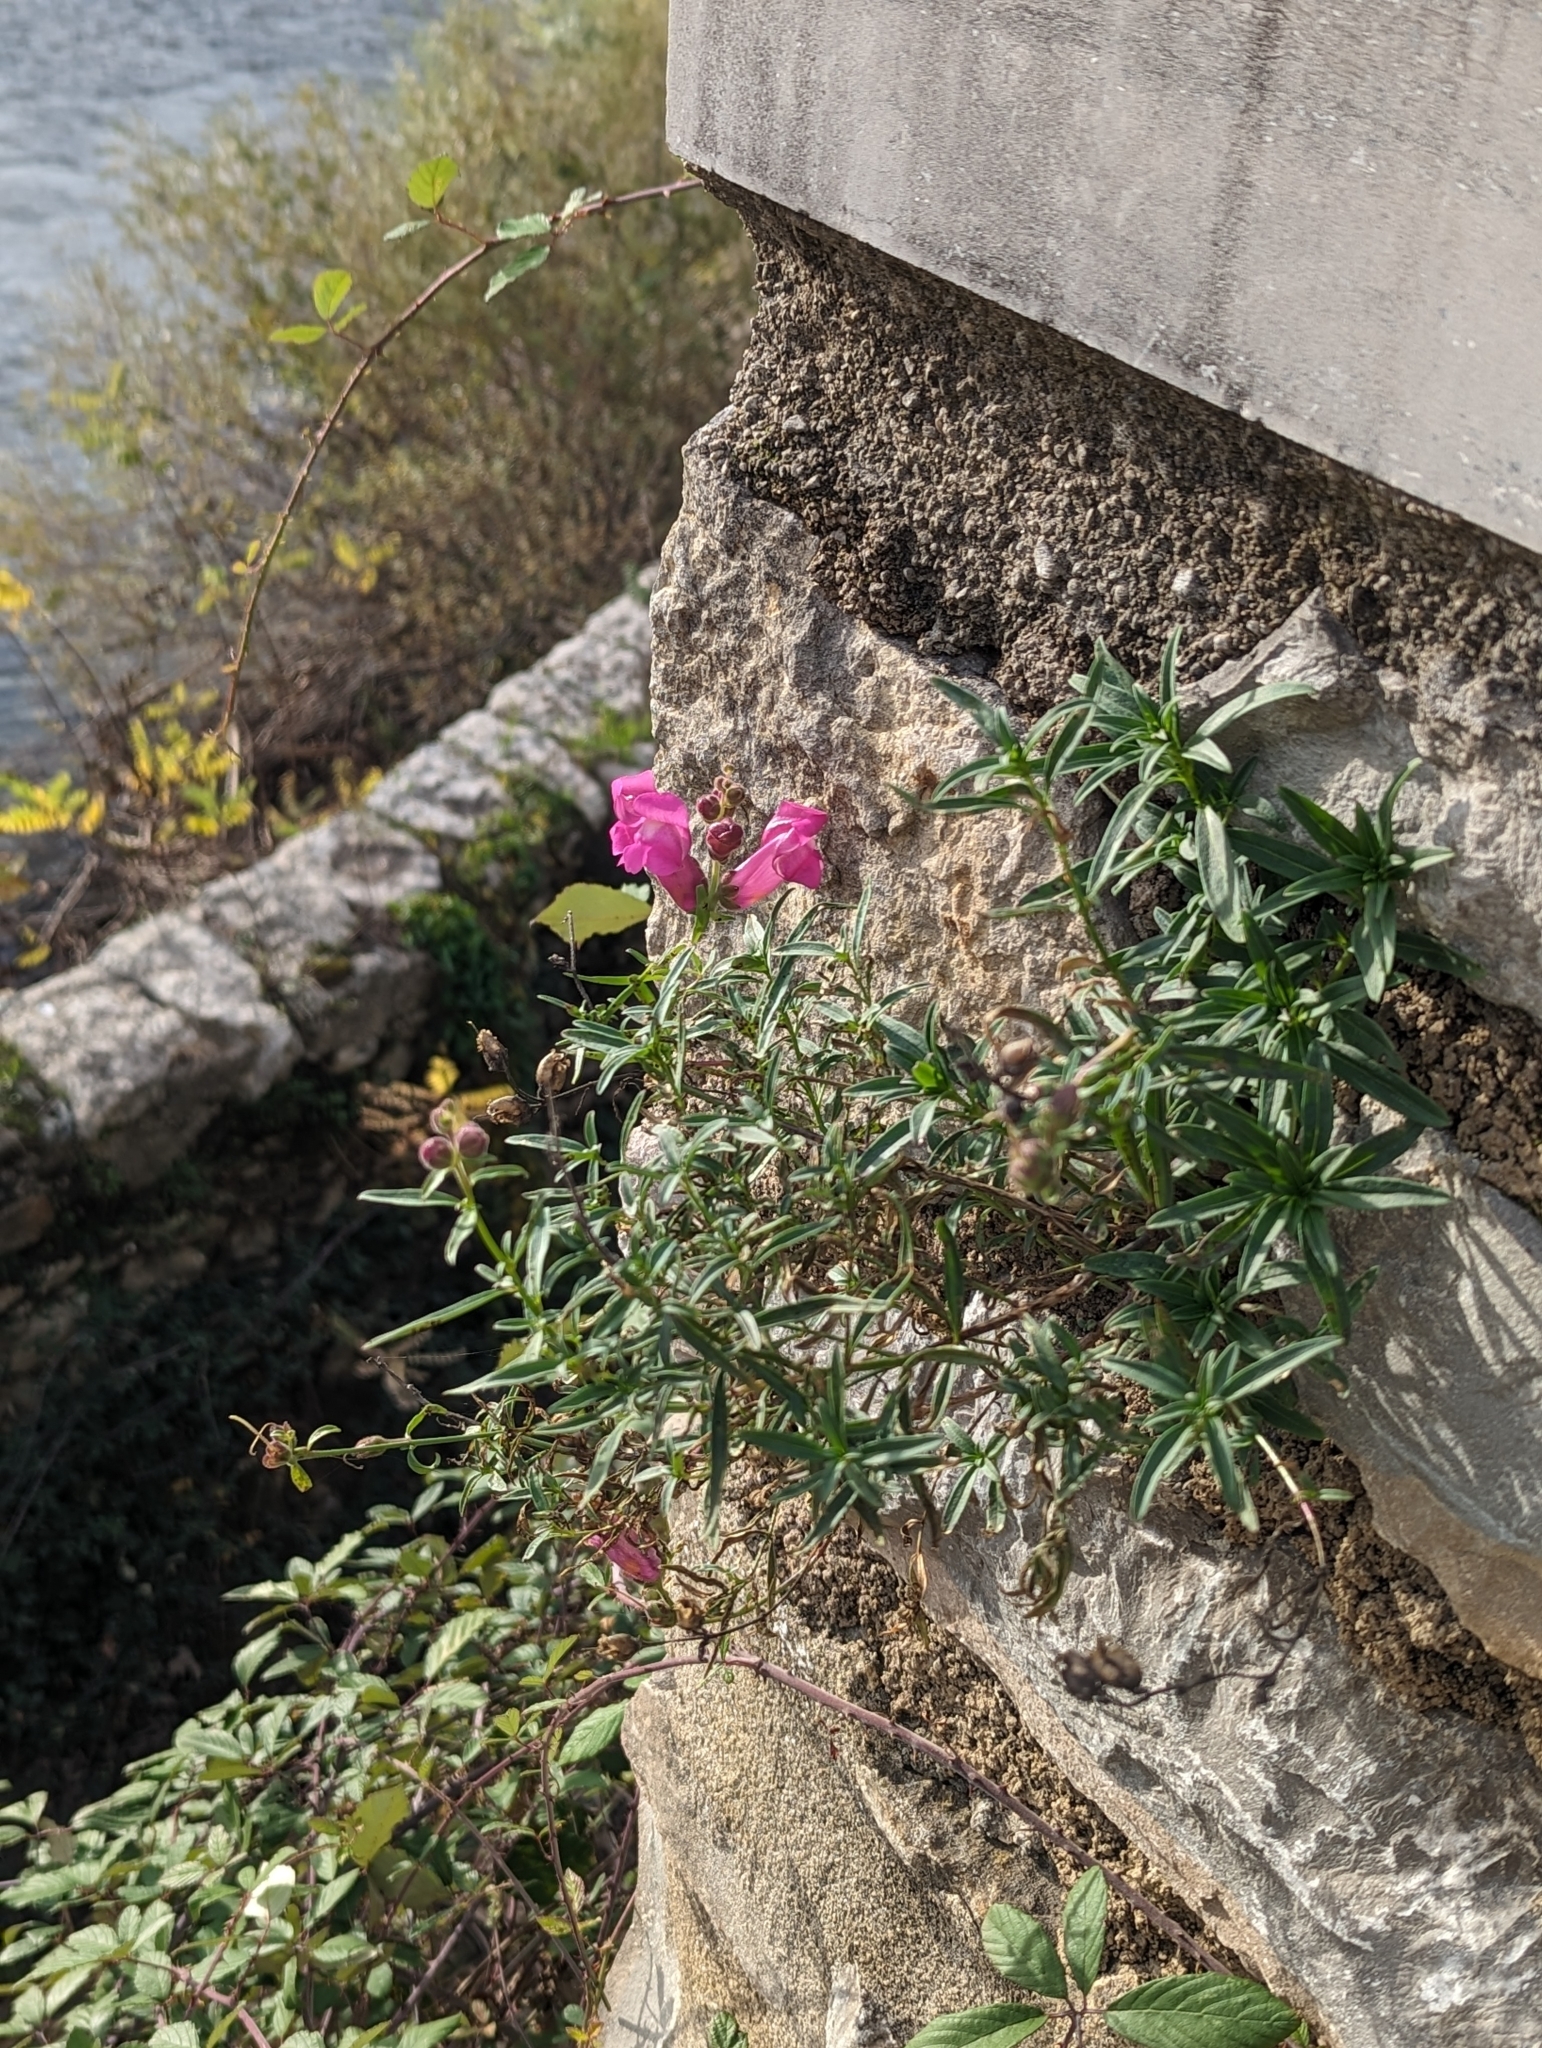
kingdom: Plantae
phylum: Tracheophyta
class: Magnoliopsida
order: Lamiales
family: Plantaginaceae
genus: Antirrhinum
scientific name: Antirrhinum majus
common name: Snapdragon
